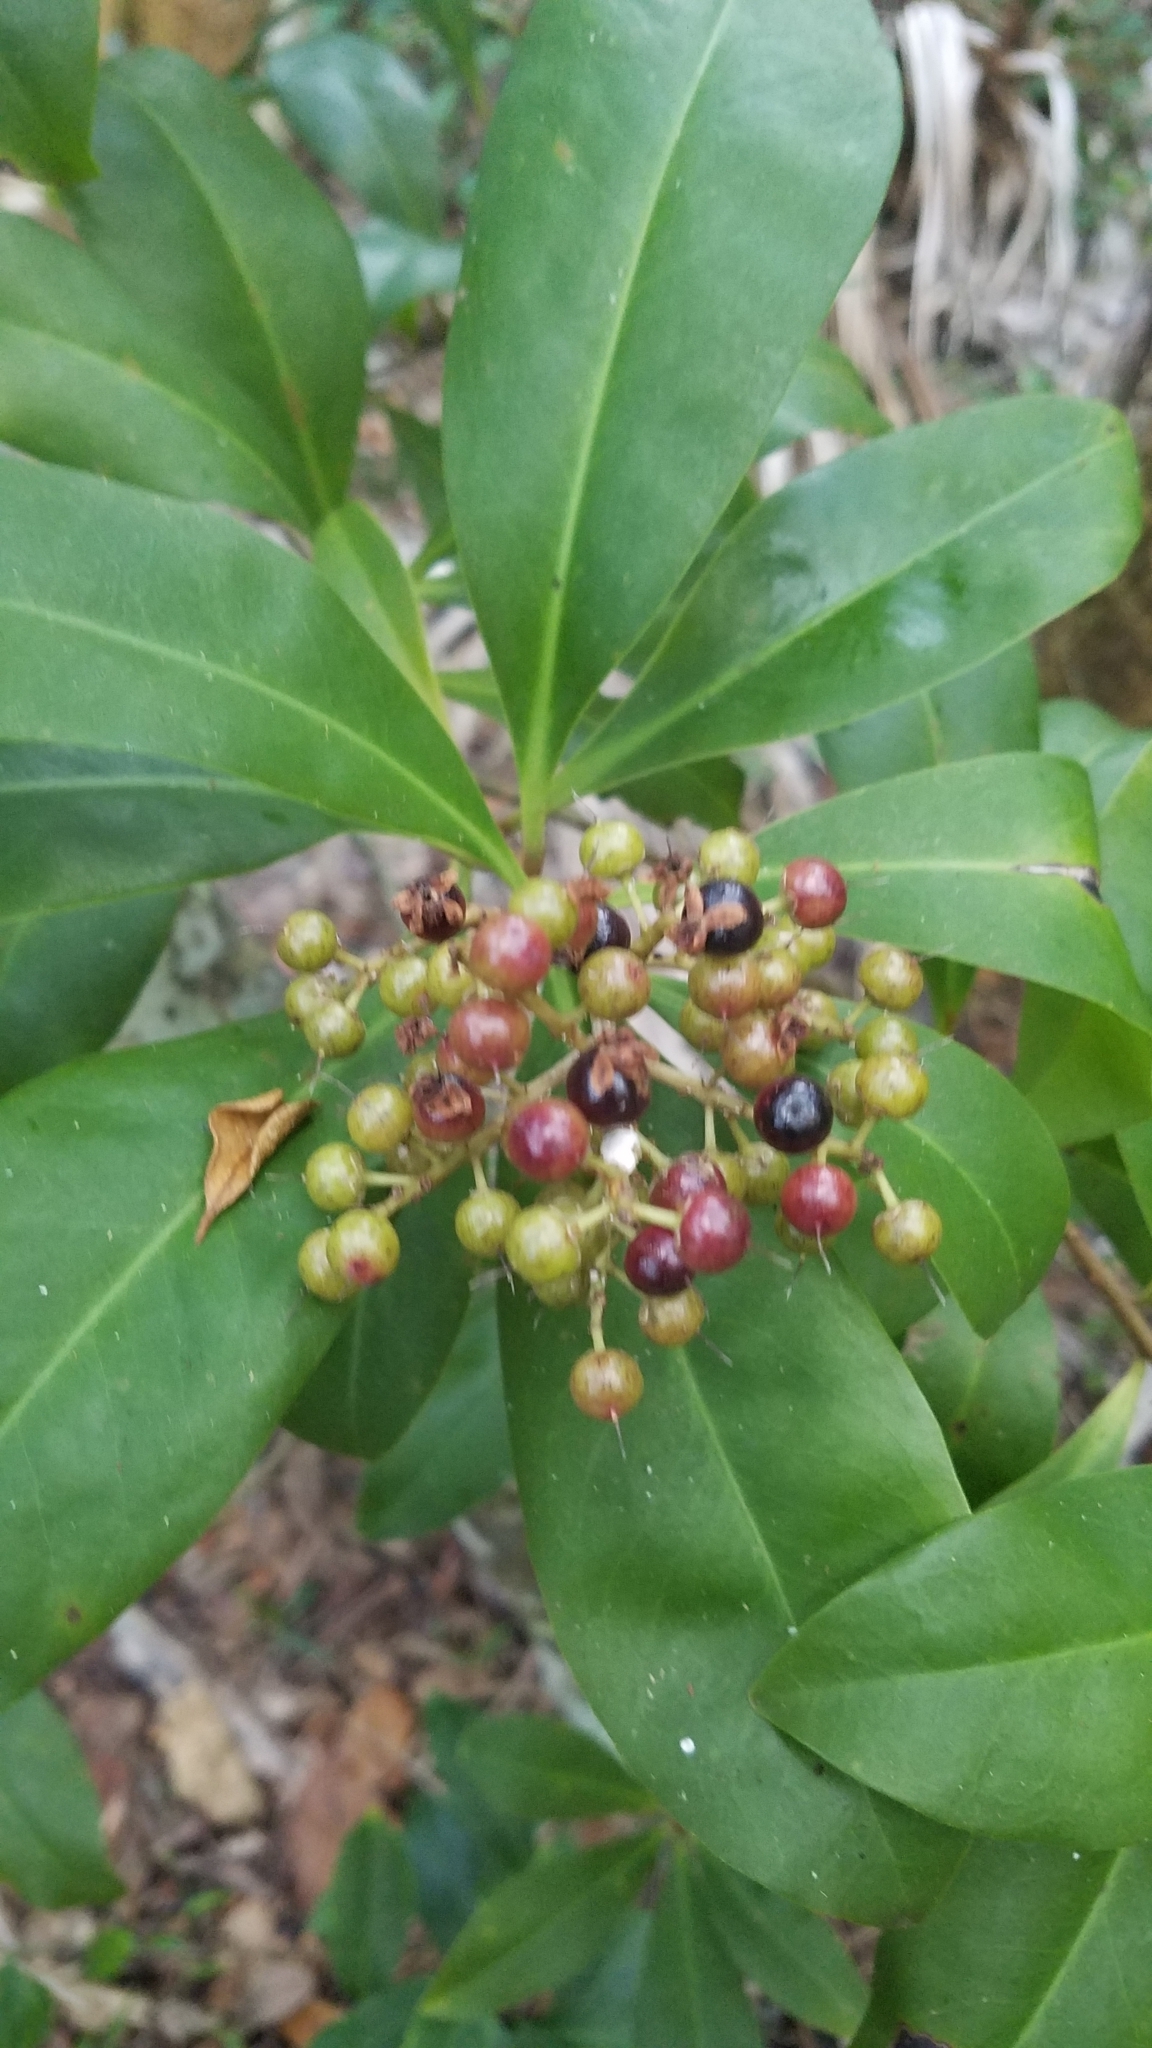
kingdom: Plantae
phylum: Tracheophyta
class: Magnoliopsida
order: Ericales
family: Primulaceae
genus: Ardisia
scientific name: Ardisia escallonioides
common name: Island marlberry
